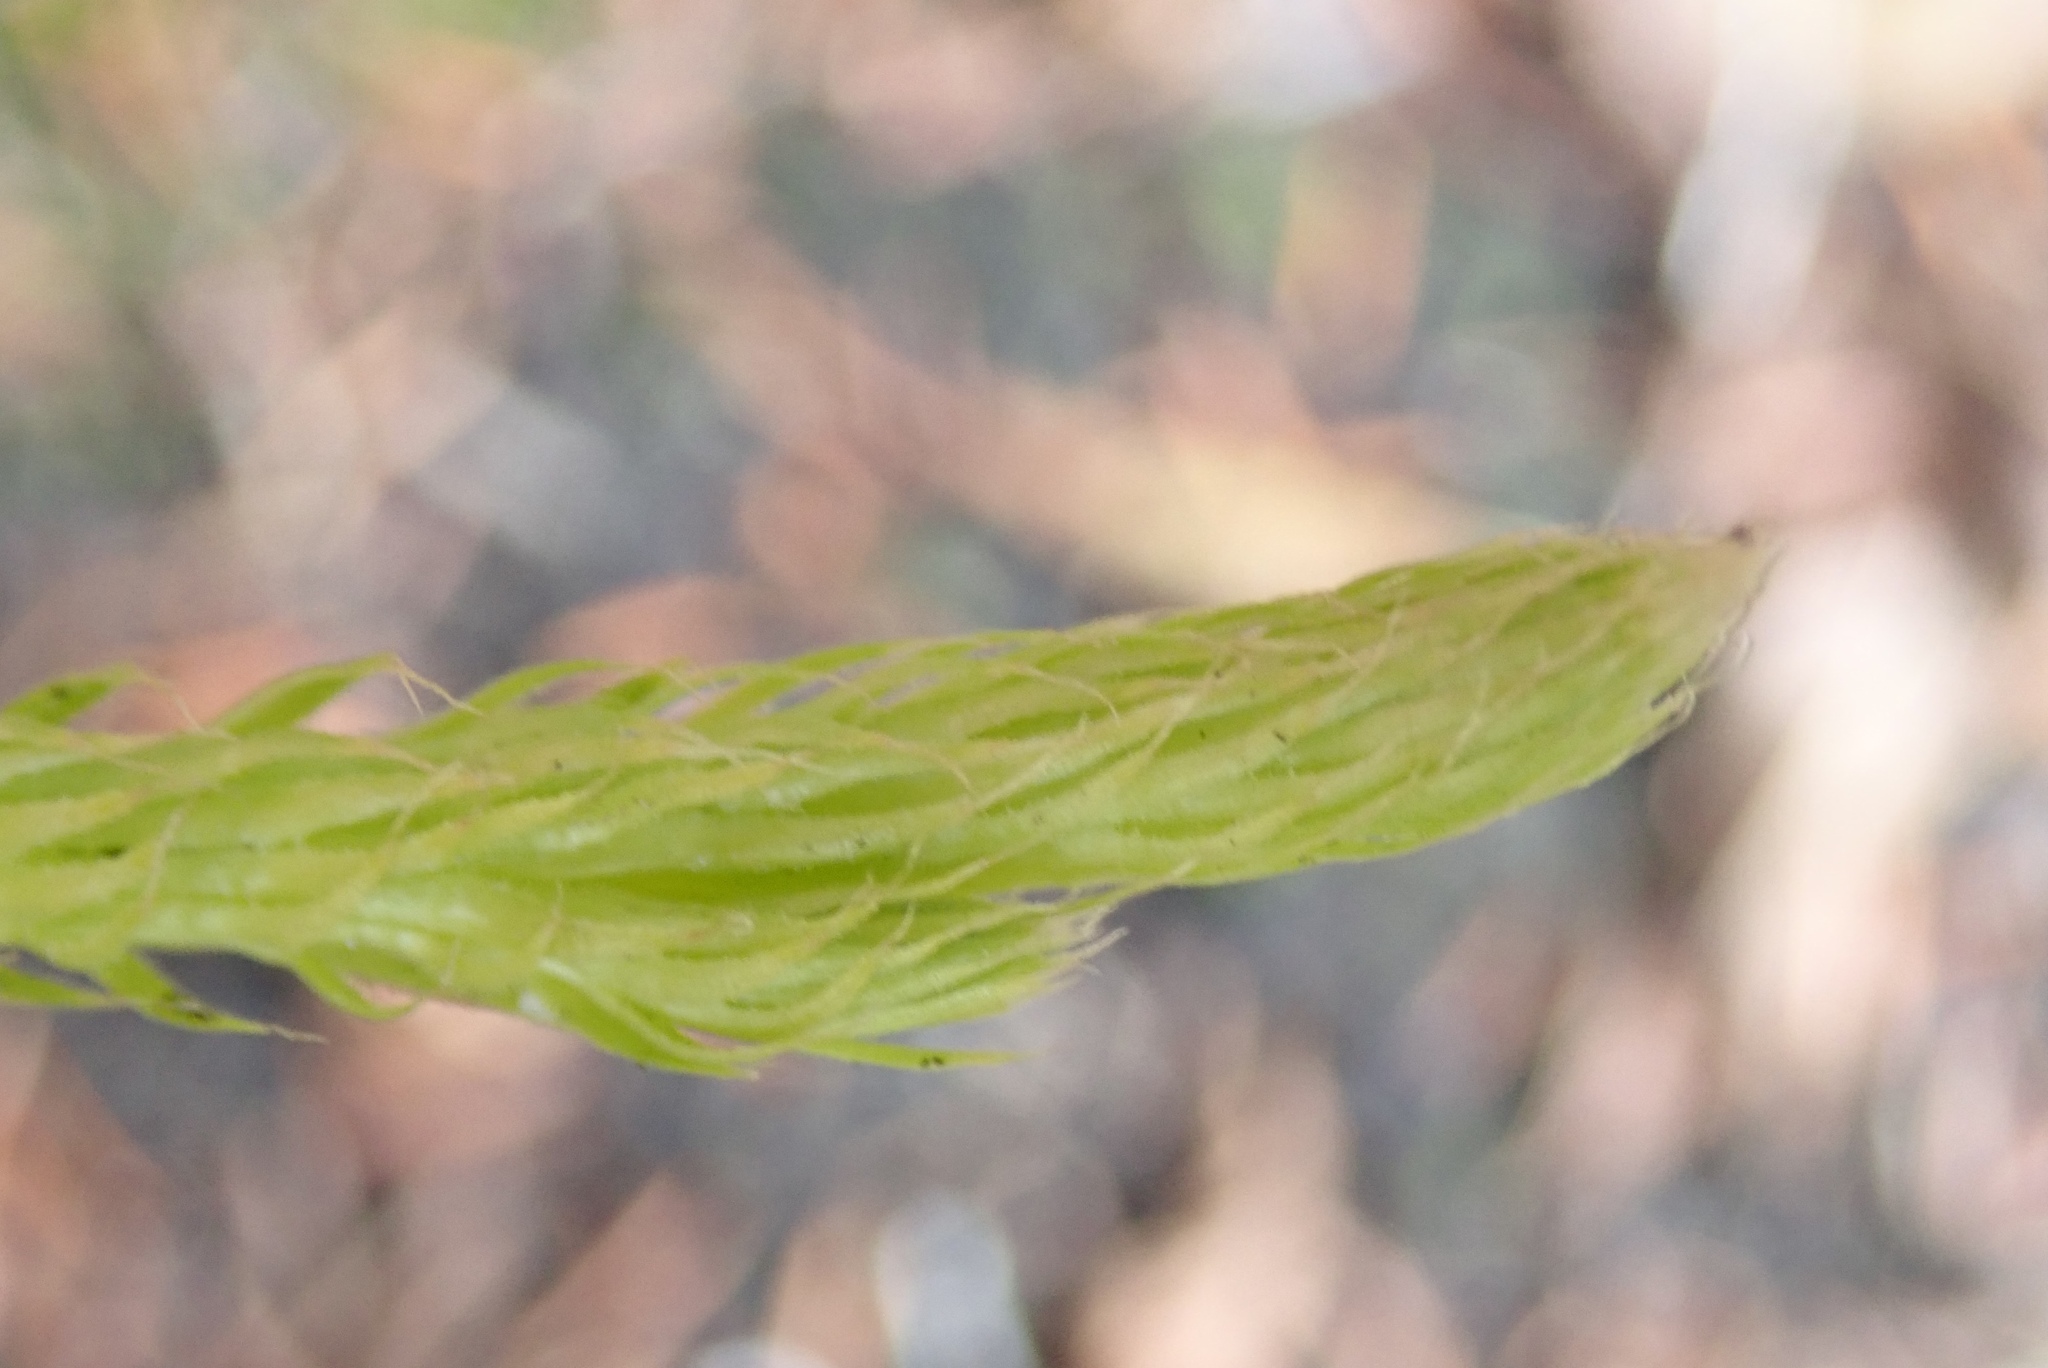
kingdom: Plantae
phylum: Tracheophyta
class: Lycopodiopsida
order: Lycopodiales
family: Lycopodiaceae
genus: Lycopodium
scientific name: Lycopodium clavatum
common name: Stag's-horn clubmoss
